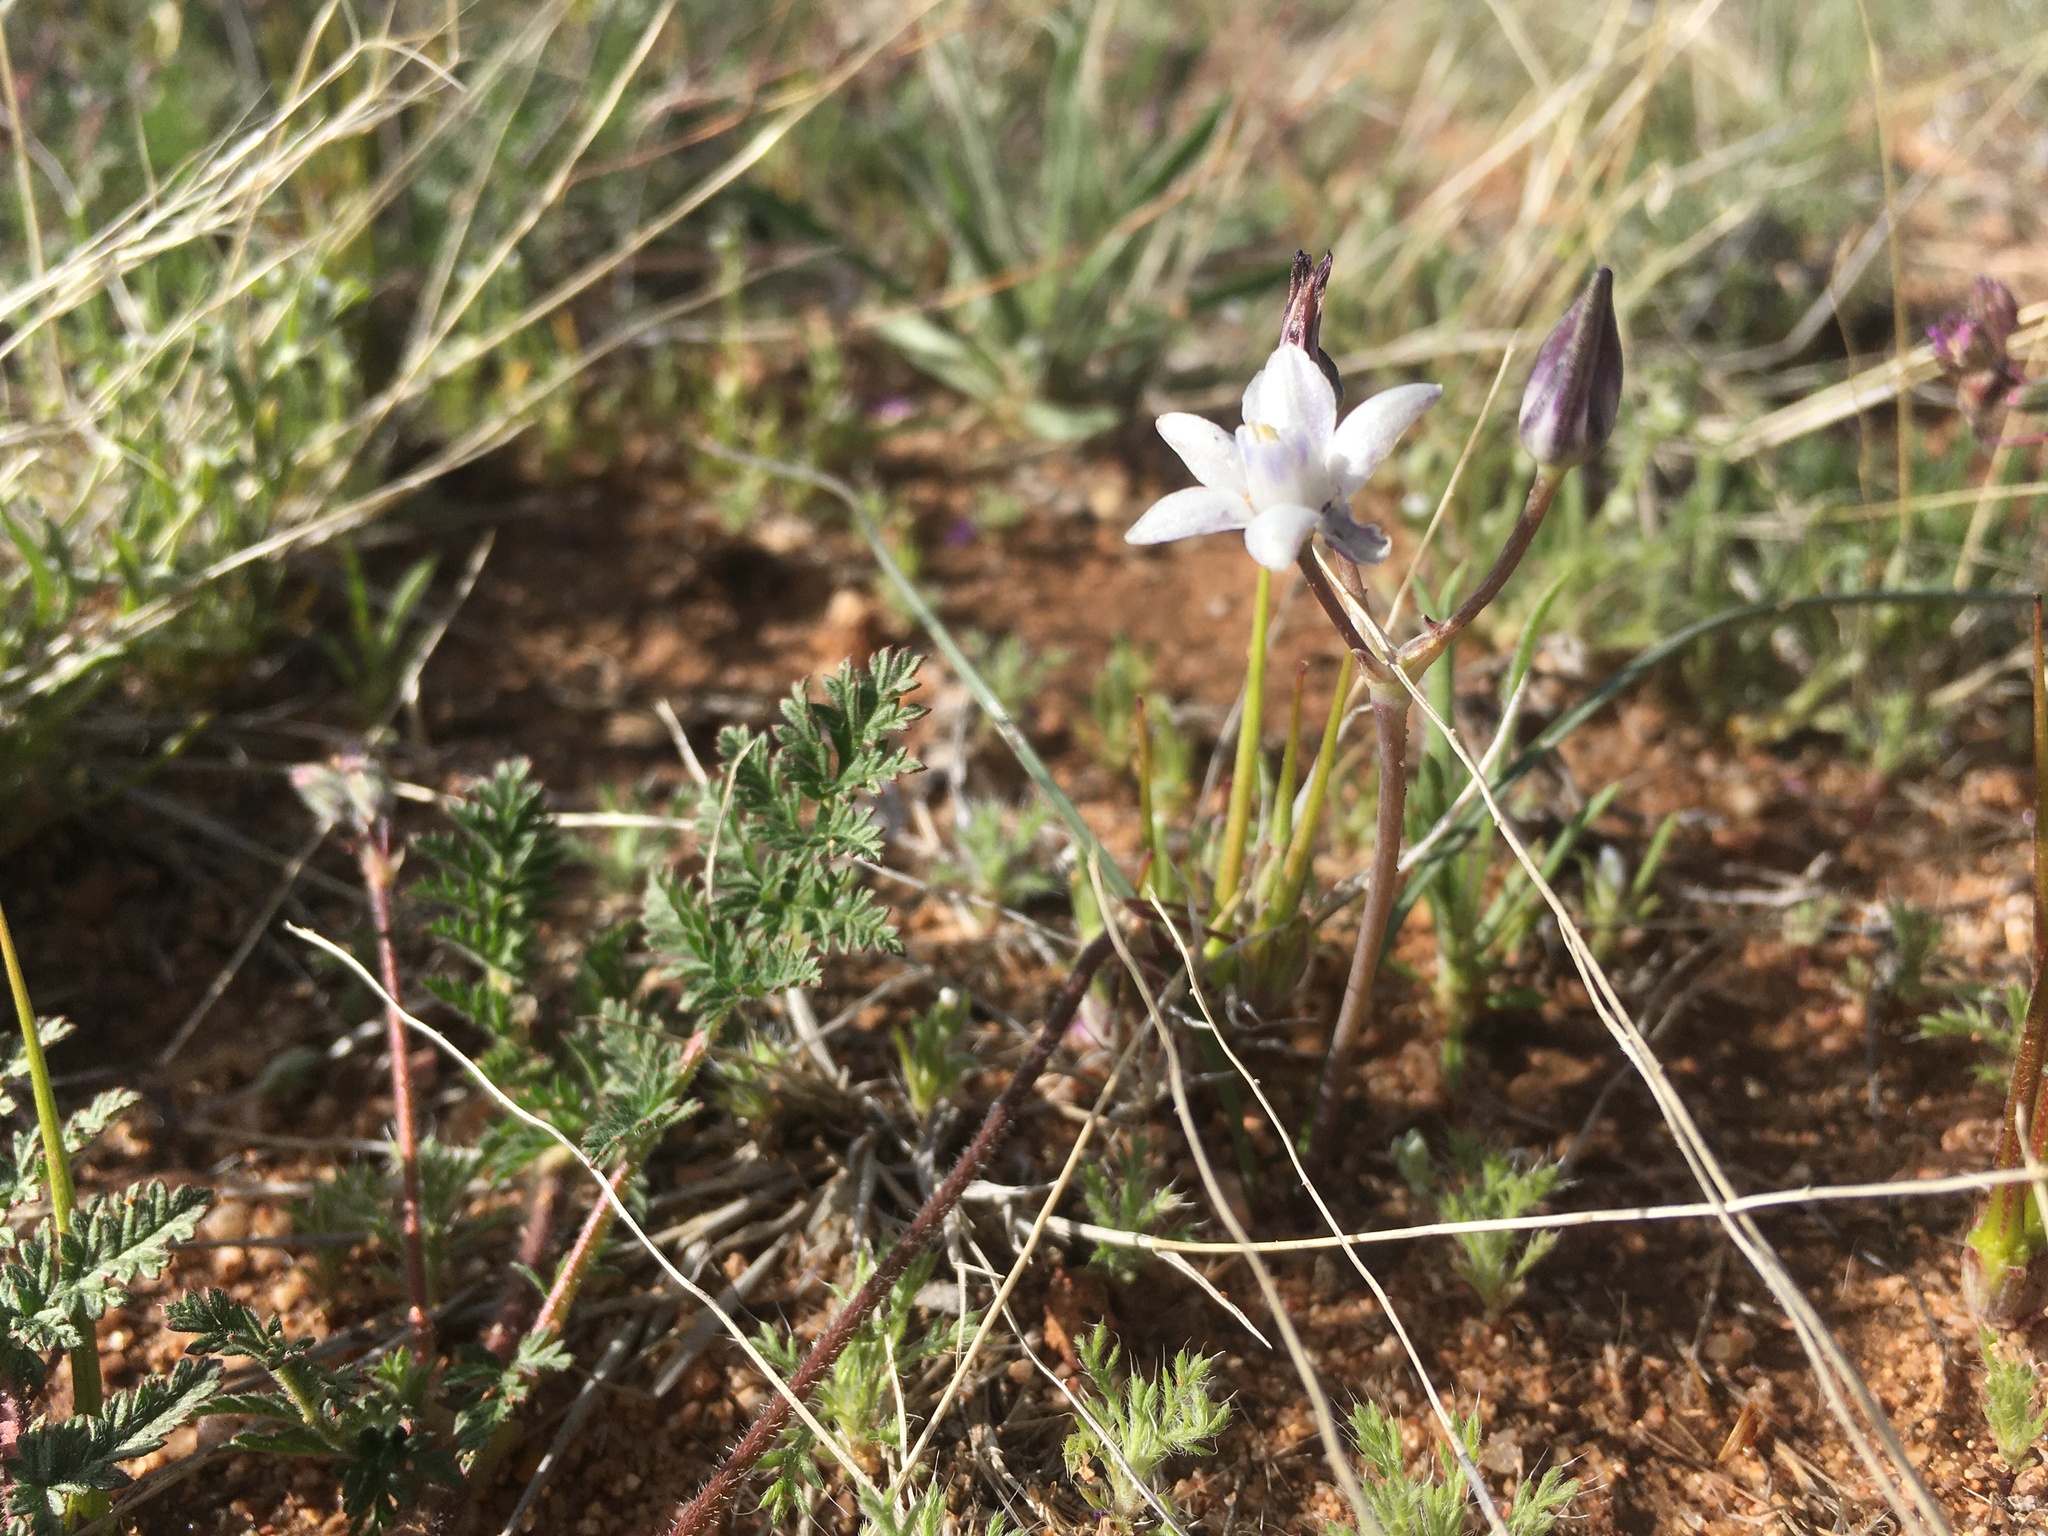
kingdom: Plantae
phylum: Tracheophyta
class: Liliopsida
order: Asparagales
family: Asparagaceae
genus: Muilla
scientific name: Muilla lordsburgana
